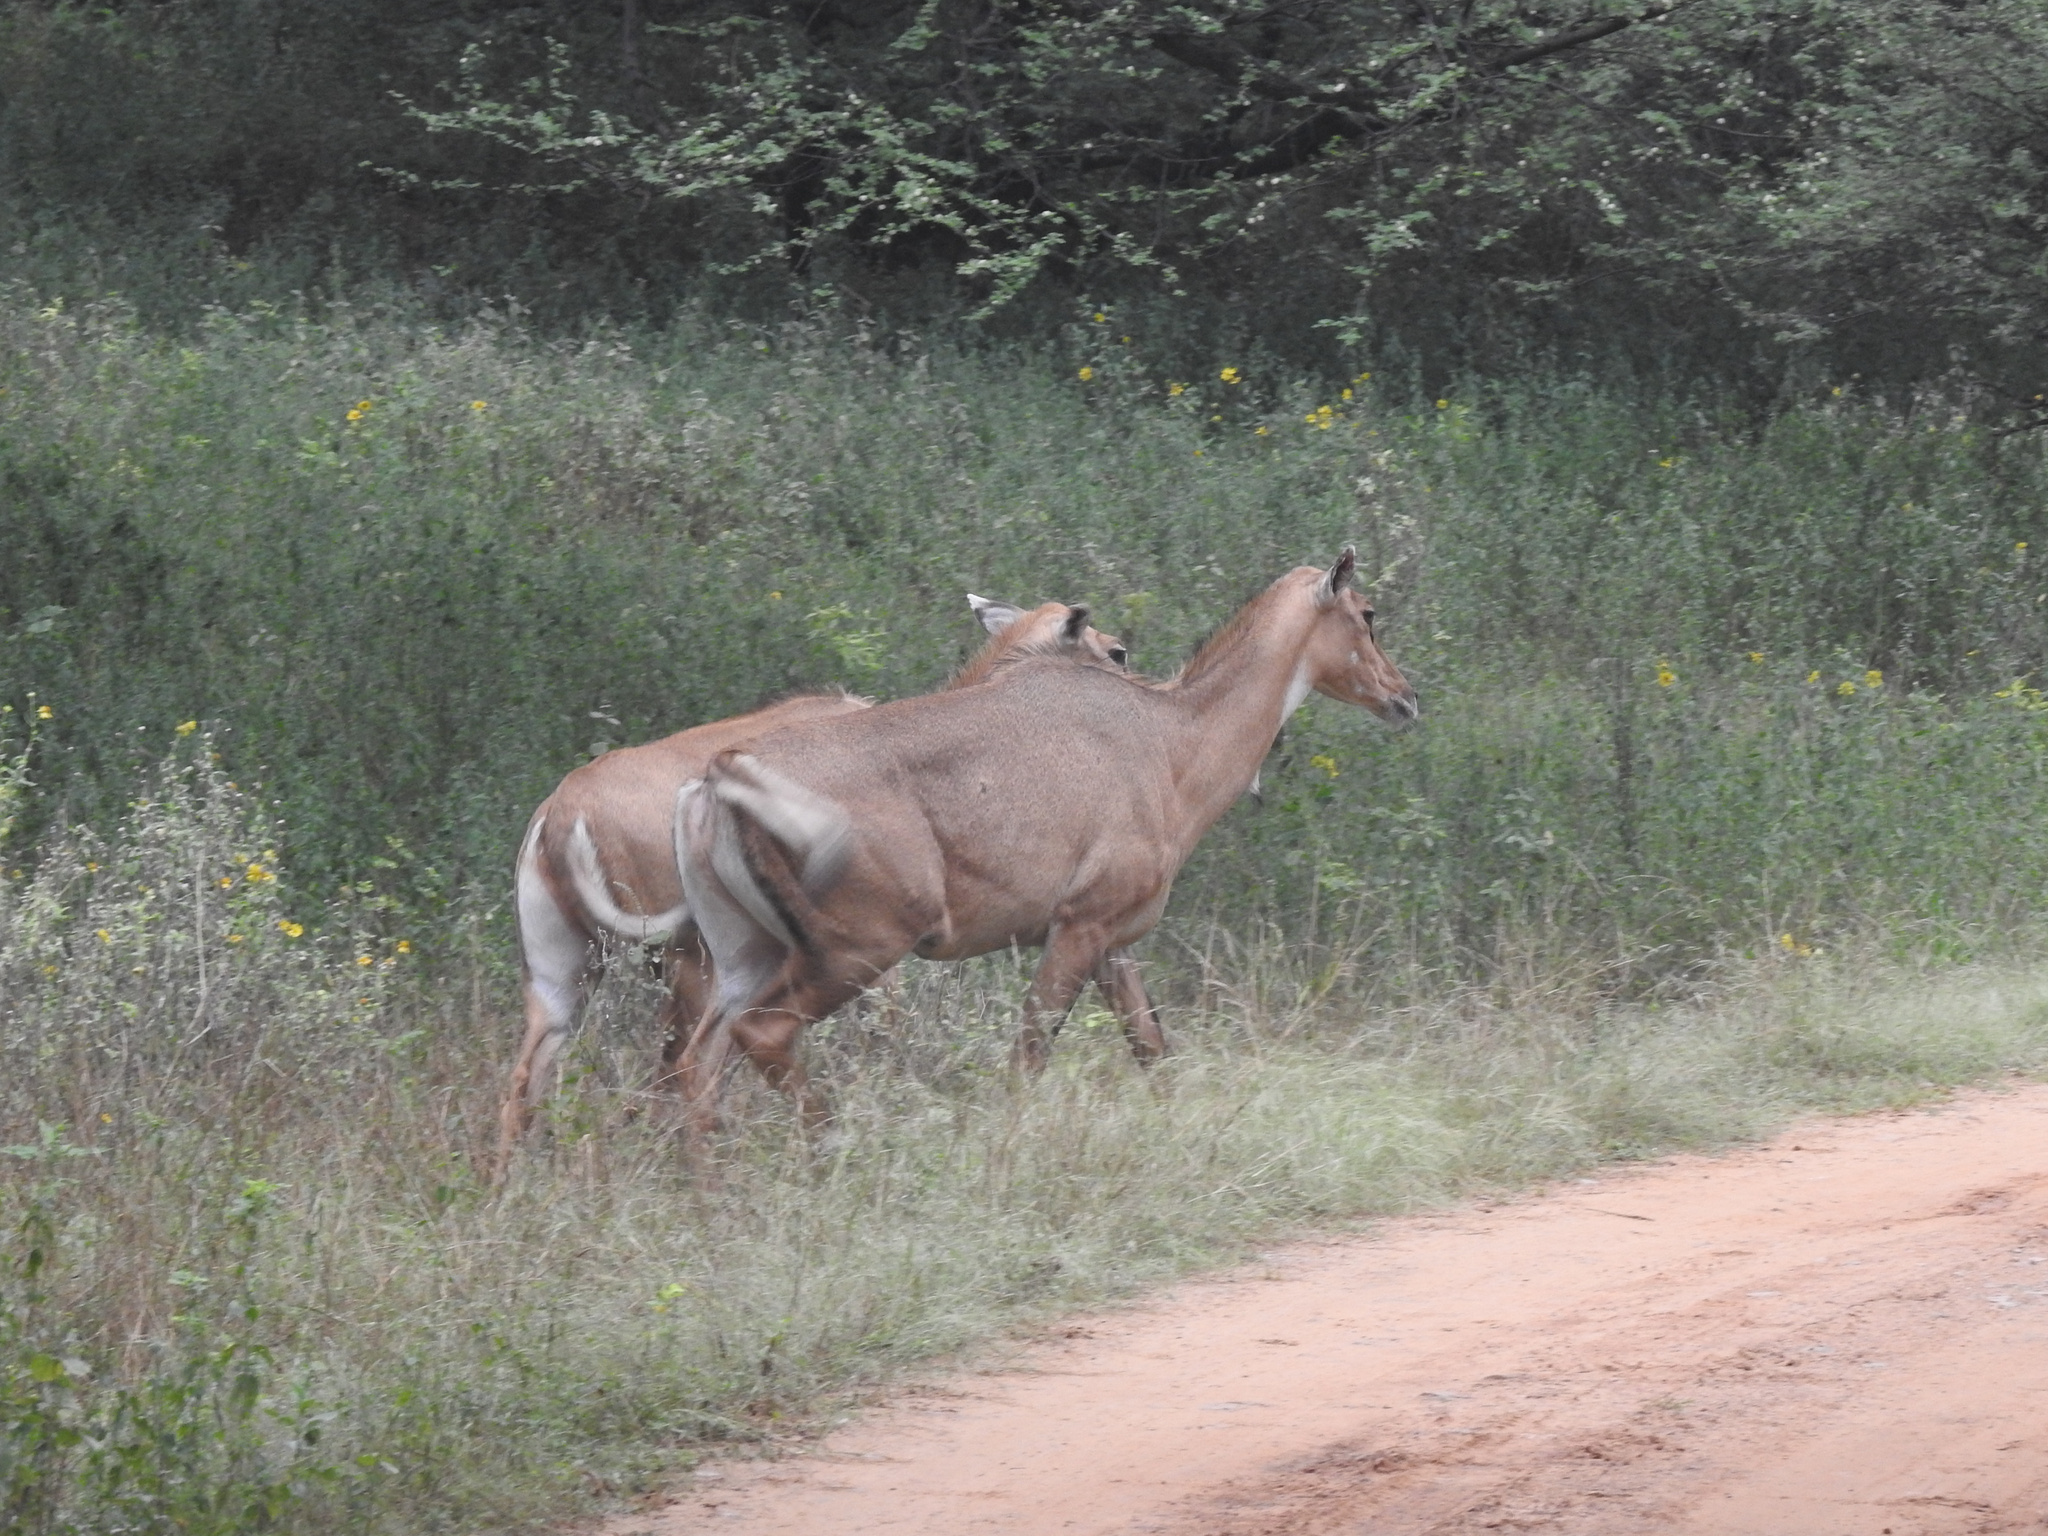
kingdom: Animalia
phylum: Chordata
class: Mammalia
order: Artiodactyla
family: Bovidae
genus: Boselaphus
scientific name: Boselaphus tragocamelus
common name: Nilgai
